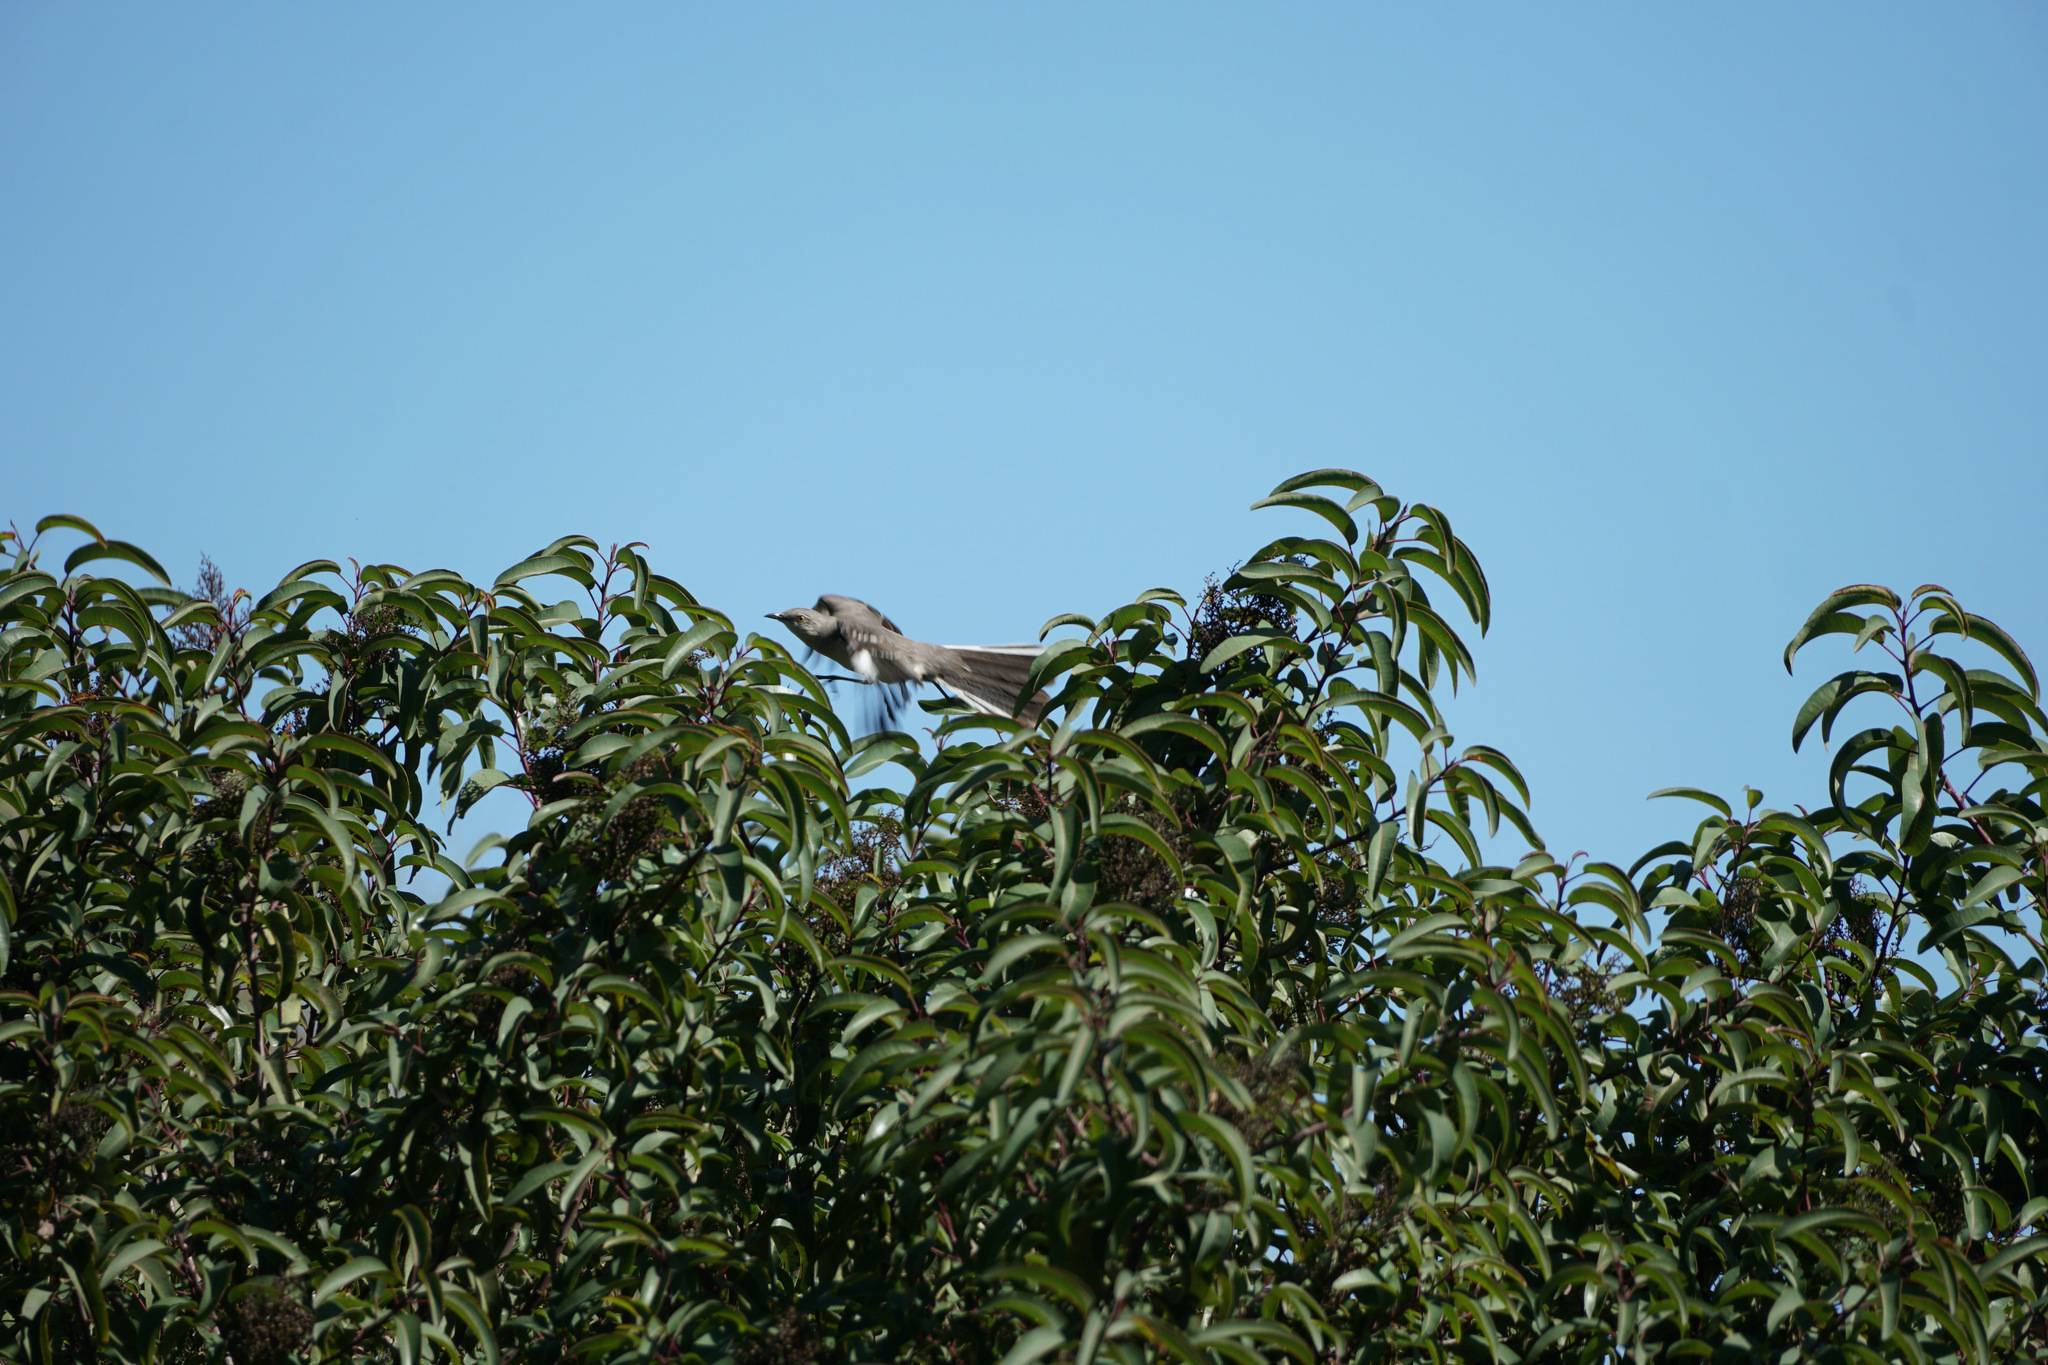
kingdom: Animalia
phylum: Chordata
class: Aves
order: Passeriformes
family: Mimidae
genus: Mimus
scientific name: Mimus polyglottos
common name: Northern mockingbird
